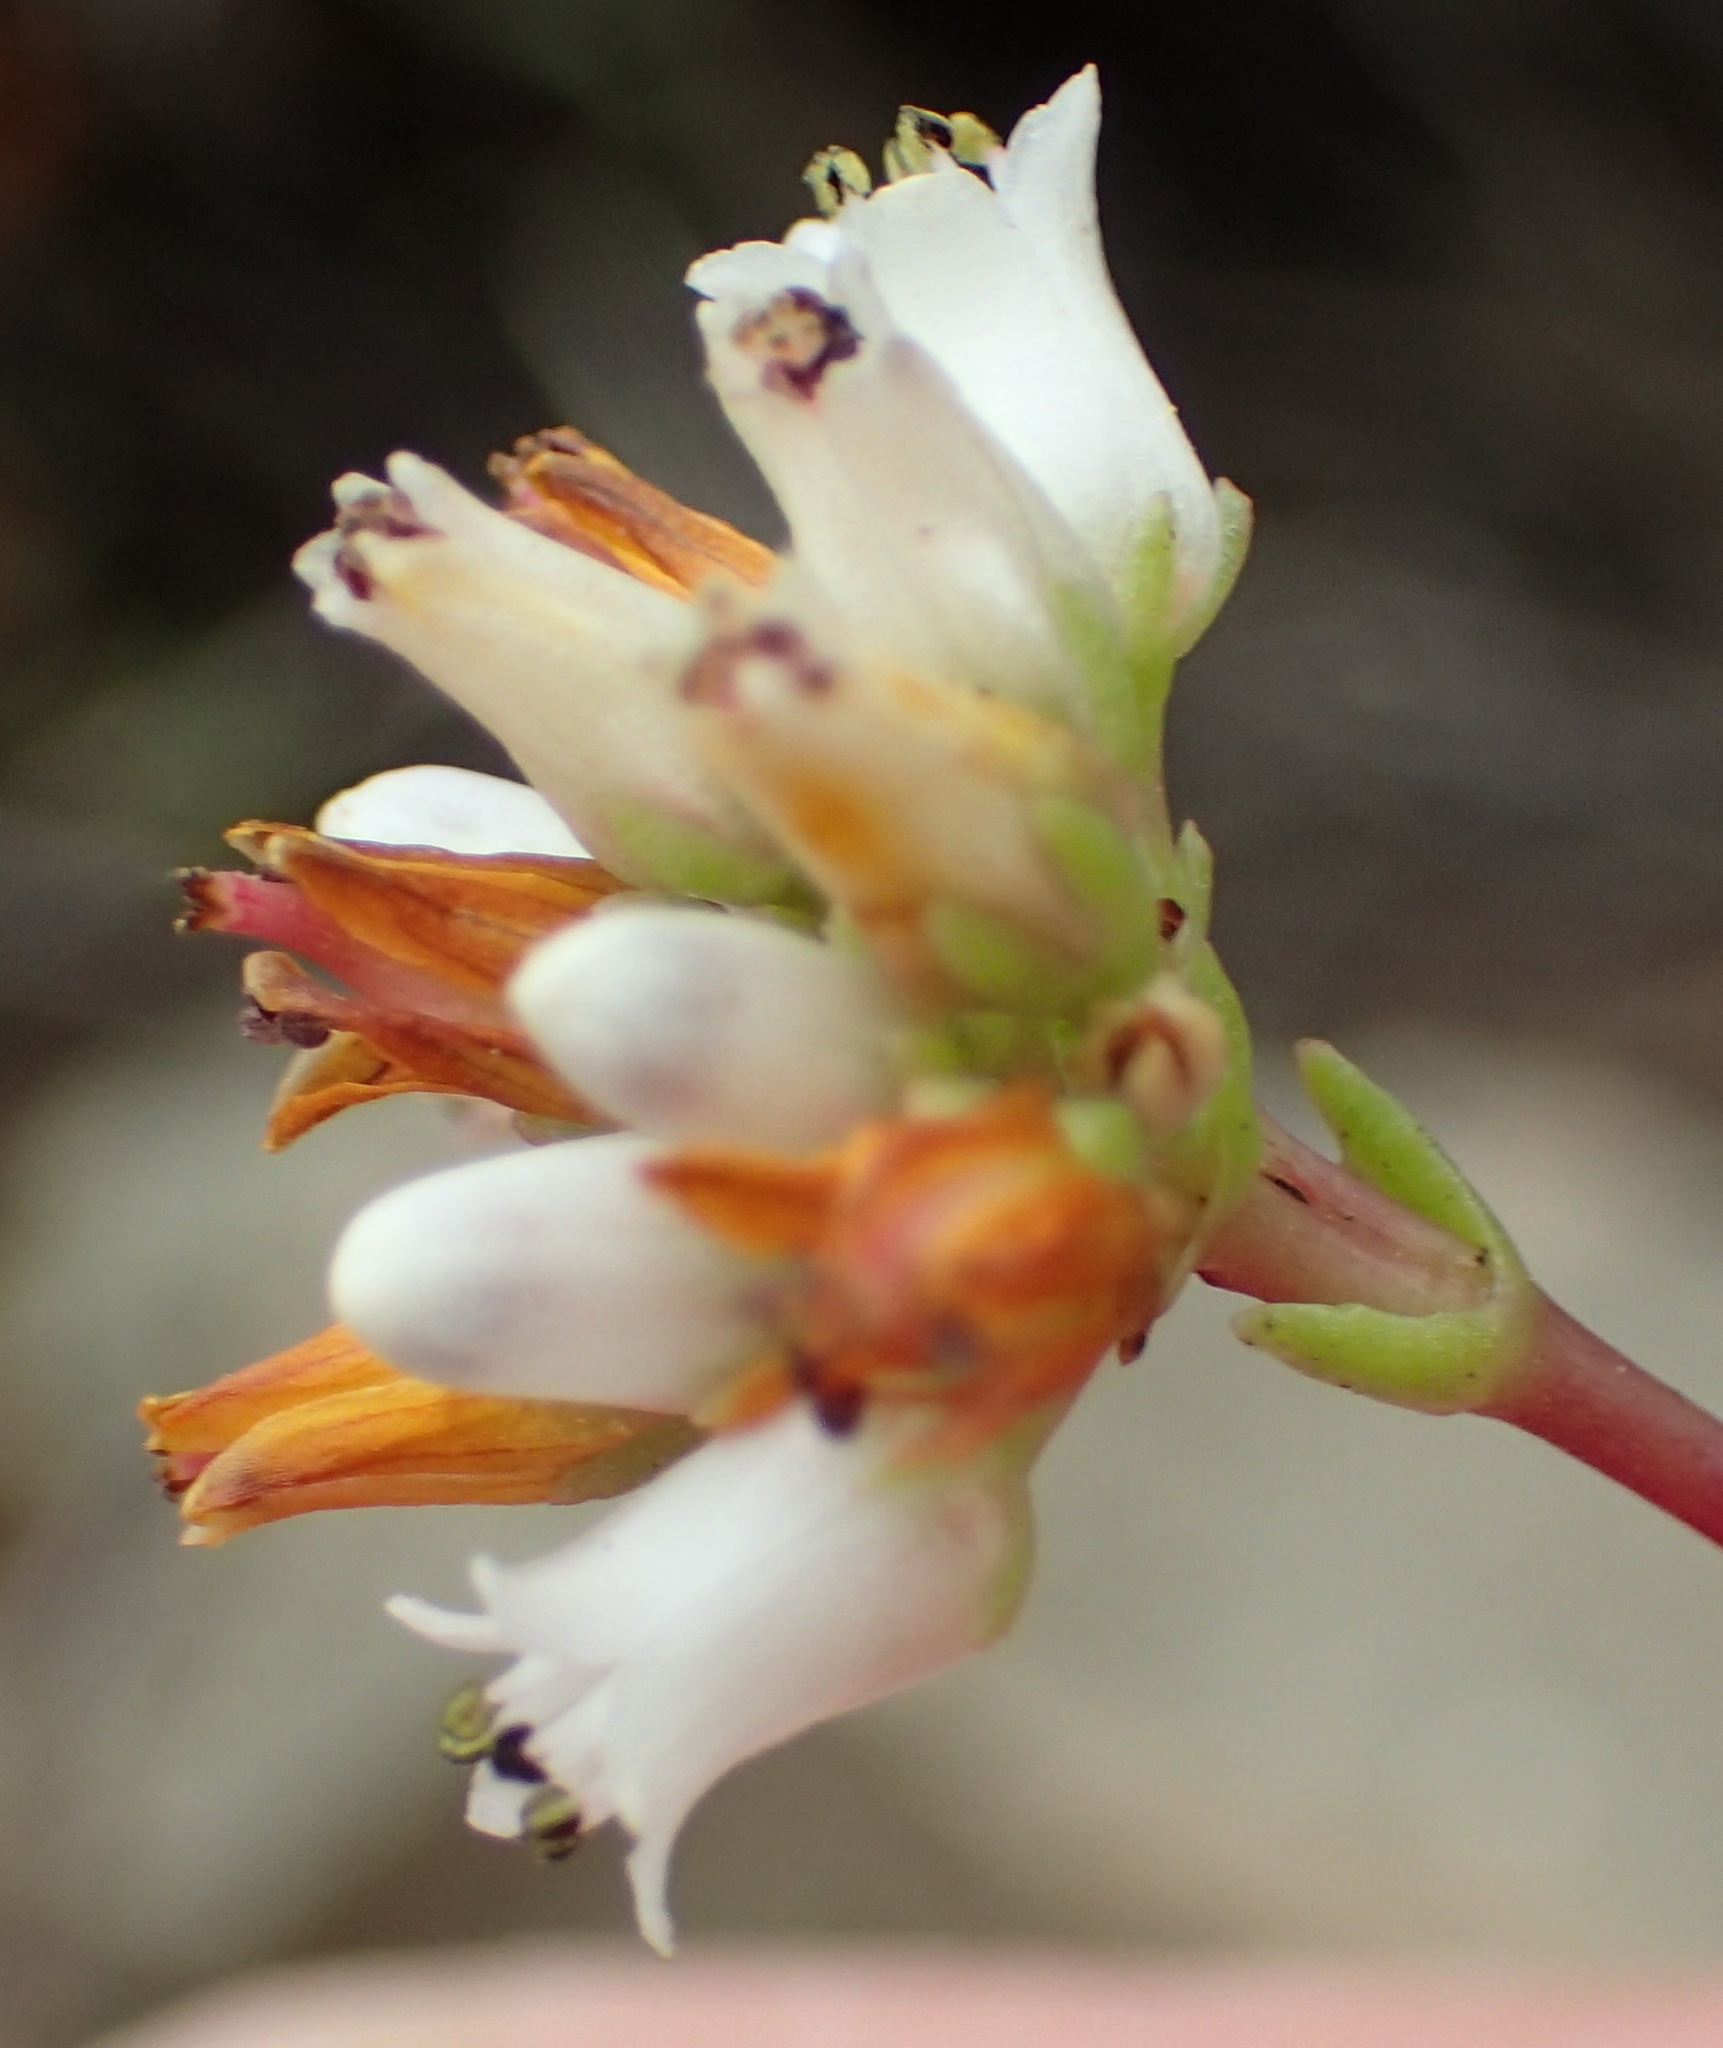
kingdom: Plantae
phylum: Tracheophyta
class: Magnoliopsida
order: Saxifragales
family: Crassulaceae
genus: Crassula
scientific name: Crassula dependens
